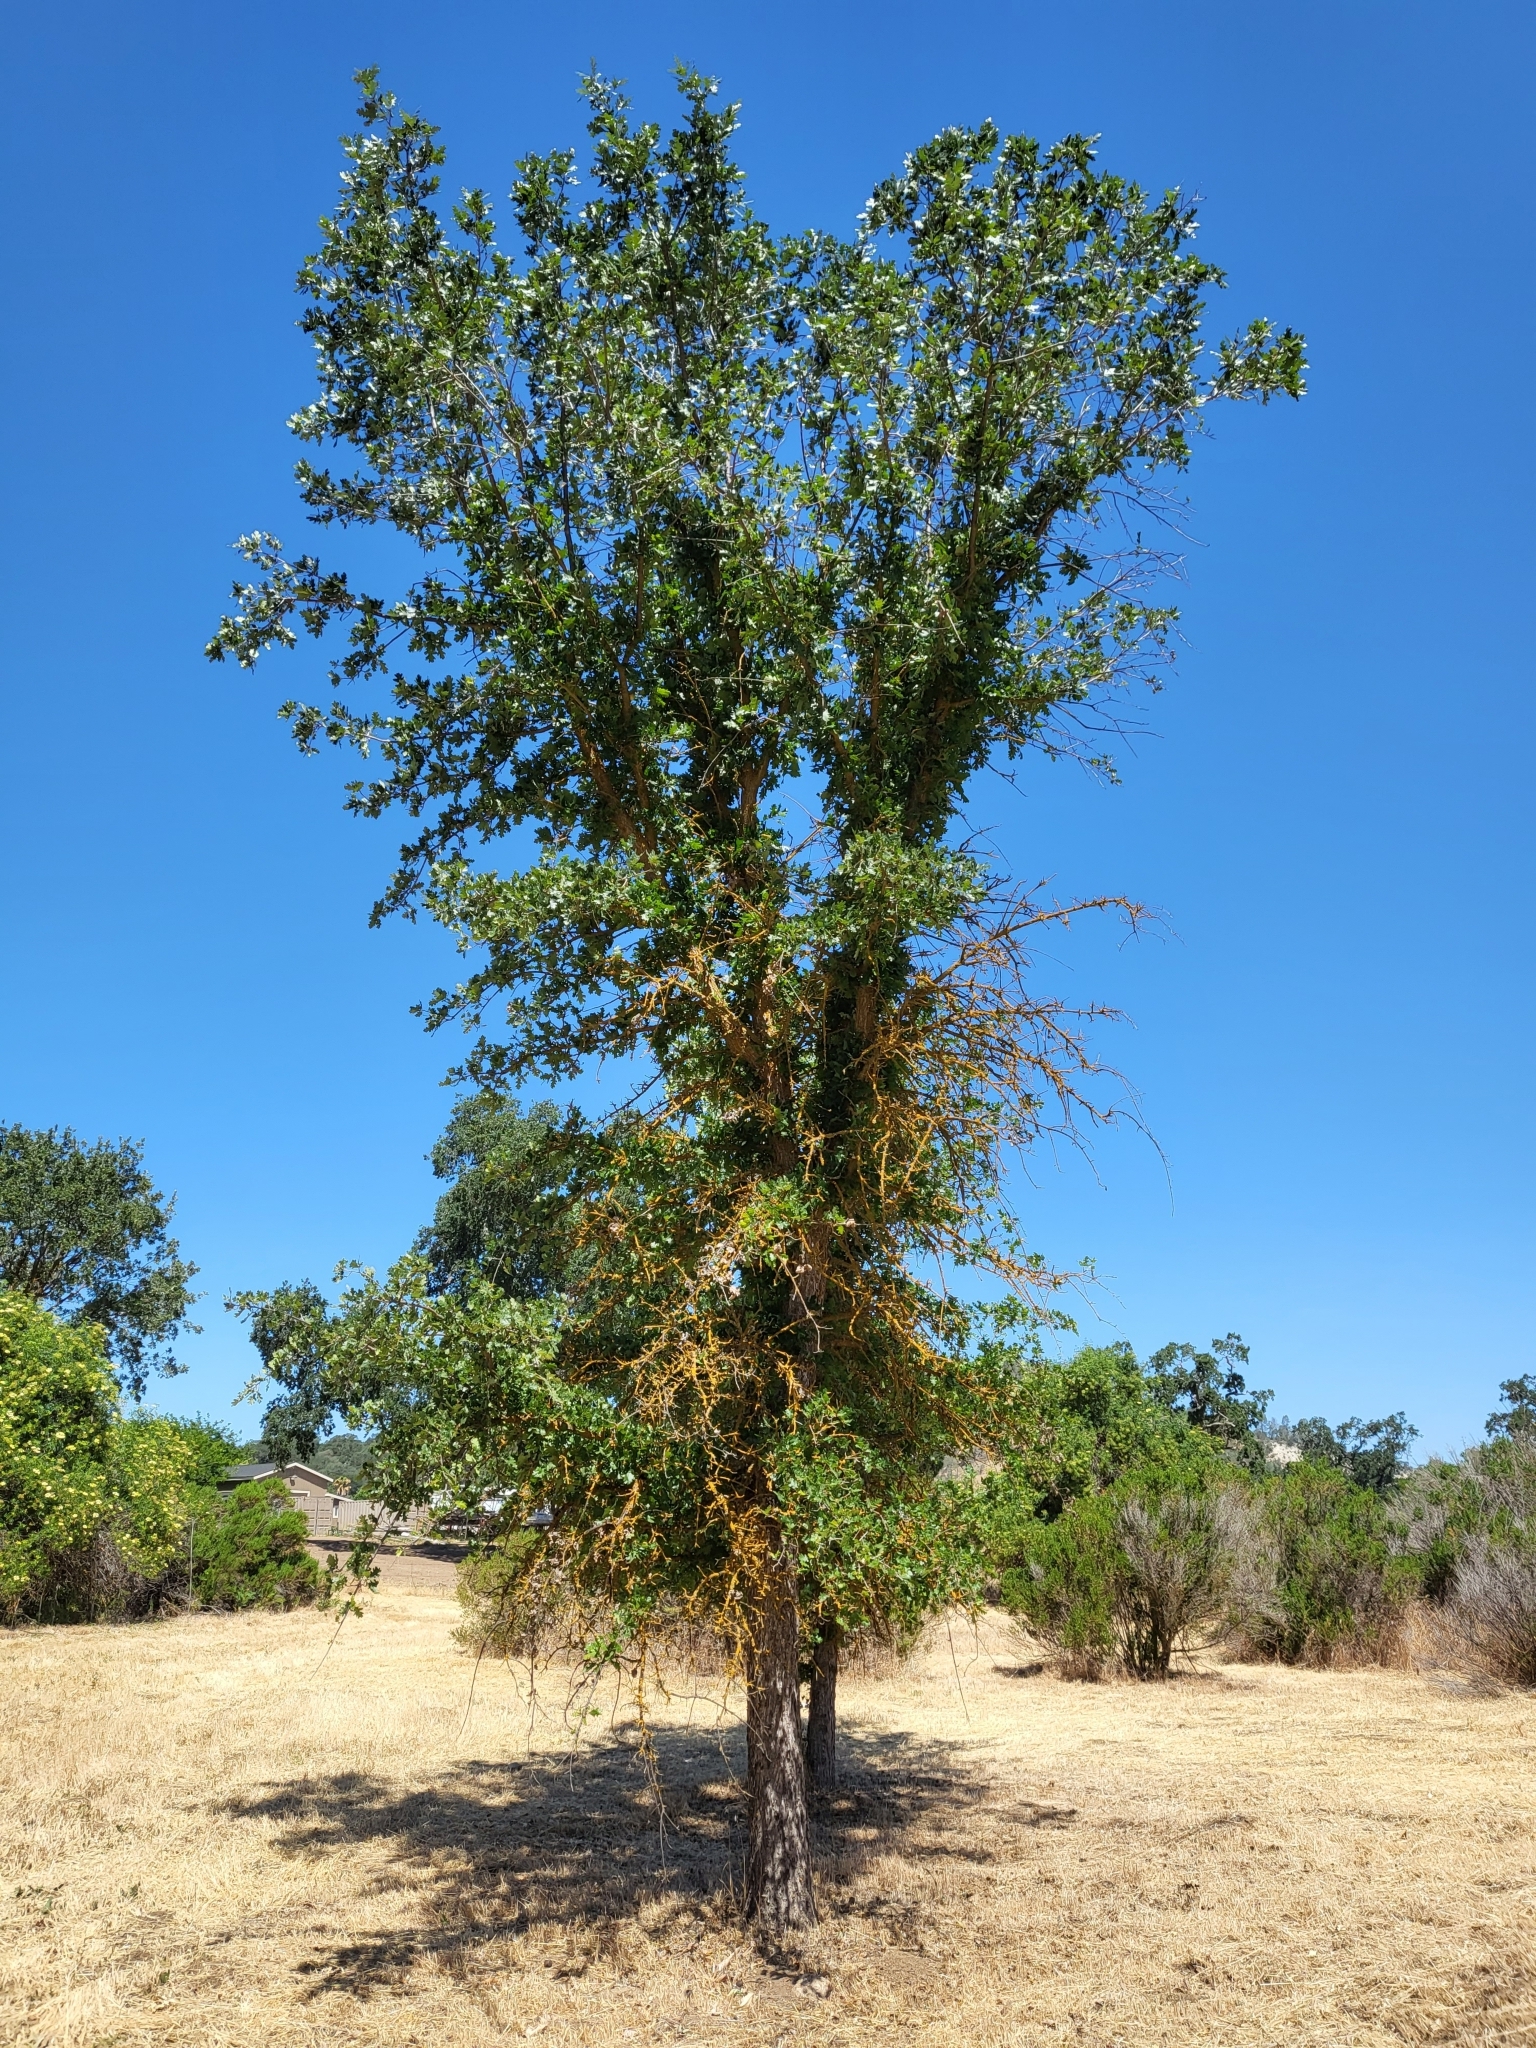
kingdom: Plantae
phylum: Tracheophyta
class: Magnoliopsida
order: Fagales
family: Fagaceae
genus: Quercus
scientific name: Quercus lobata
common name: Valley oak
